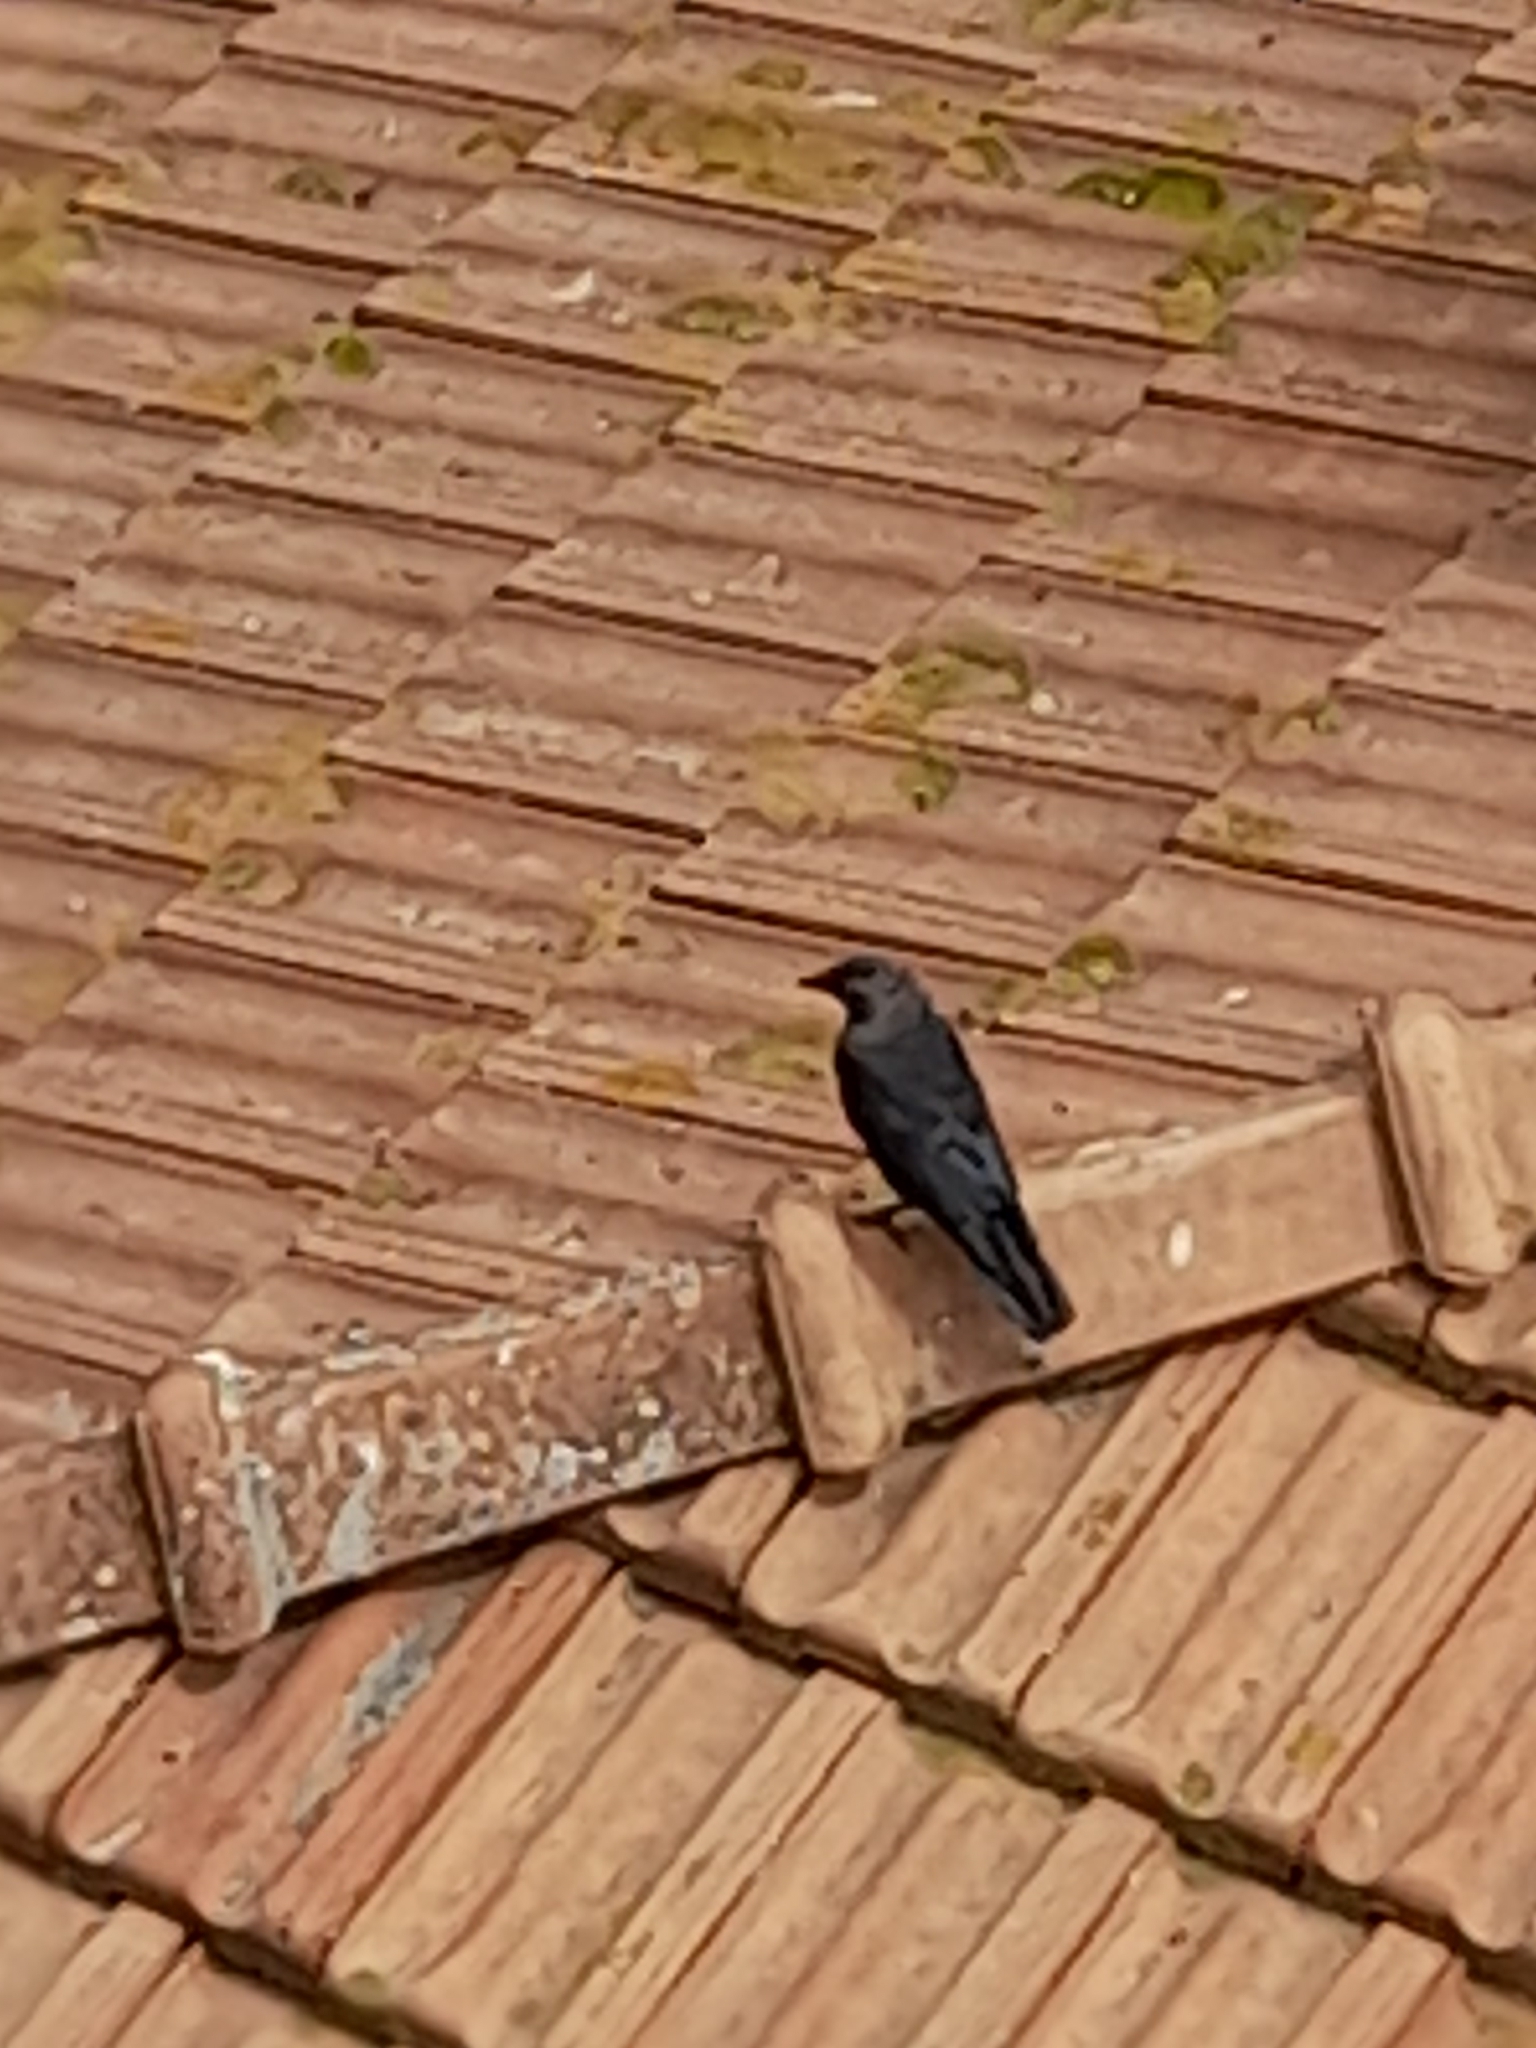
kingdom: Animalia
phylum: Chordata
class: Aves
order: Passeriformes
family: Corvidae
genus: Coloeus
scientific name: Coloeus monedula
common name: Western jackdaw
